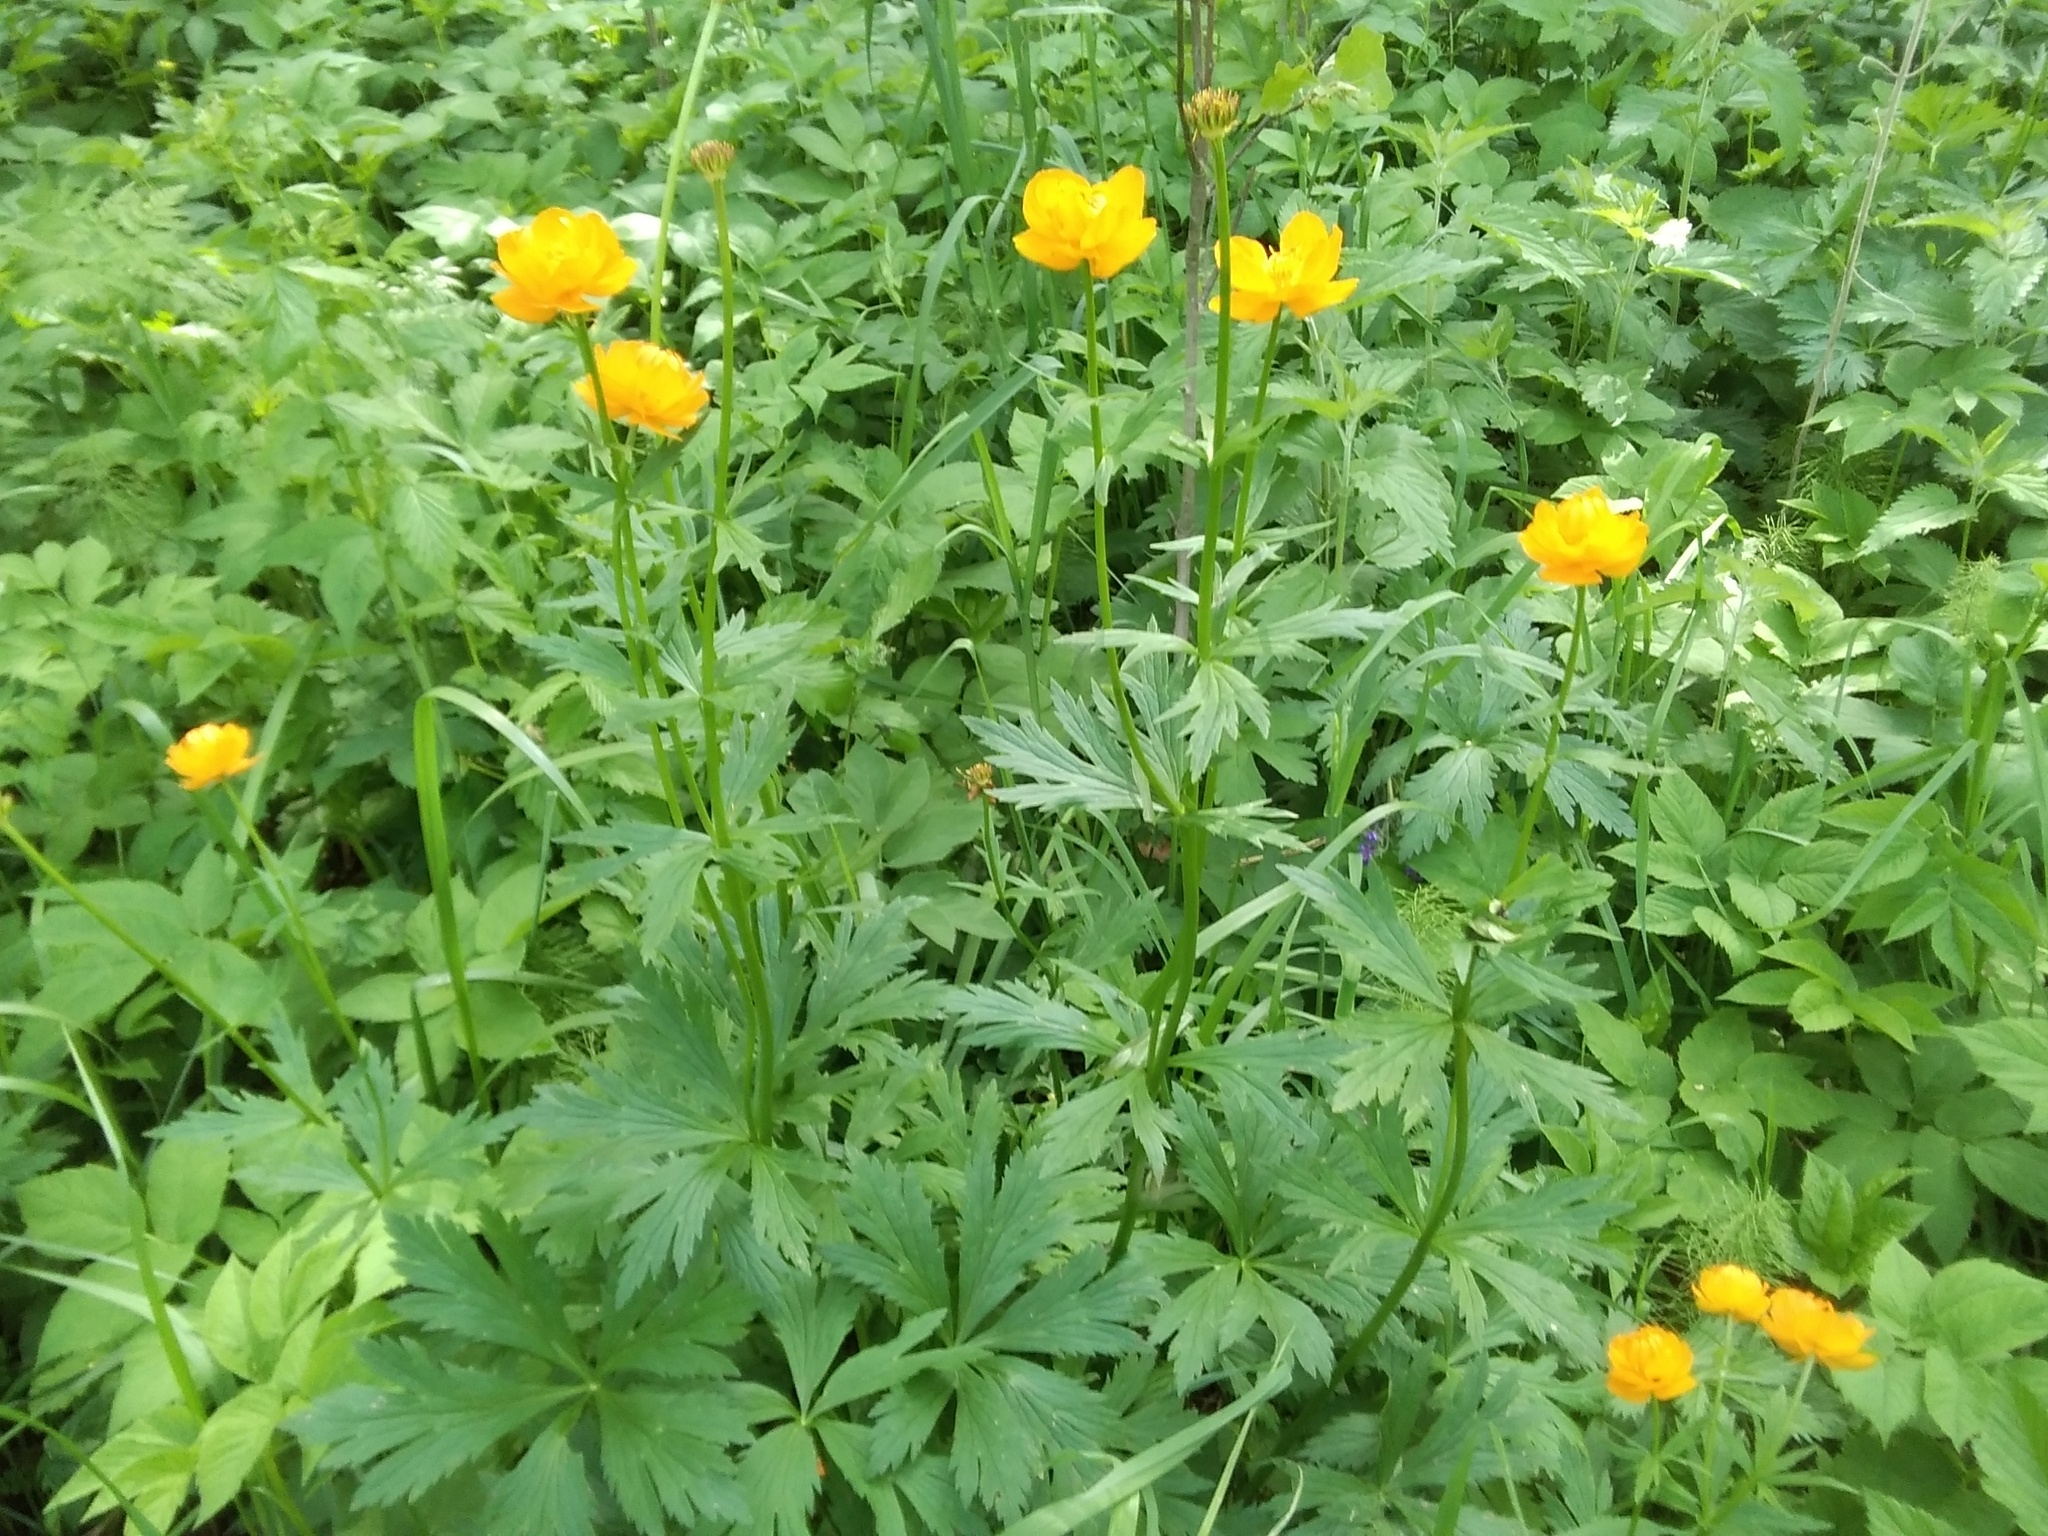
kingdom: Plantae
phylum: Tracheophyta
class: Magnoliopsida
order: Ranunculales
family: Ranunculaceae
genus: Trollius
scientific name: Trollius asiaticus
